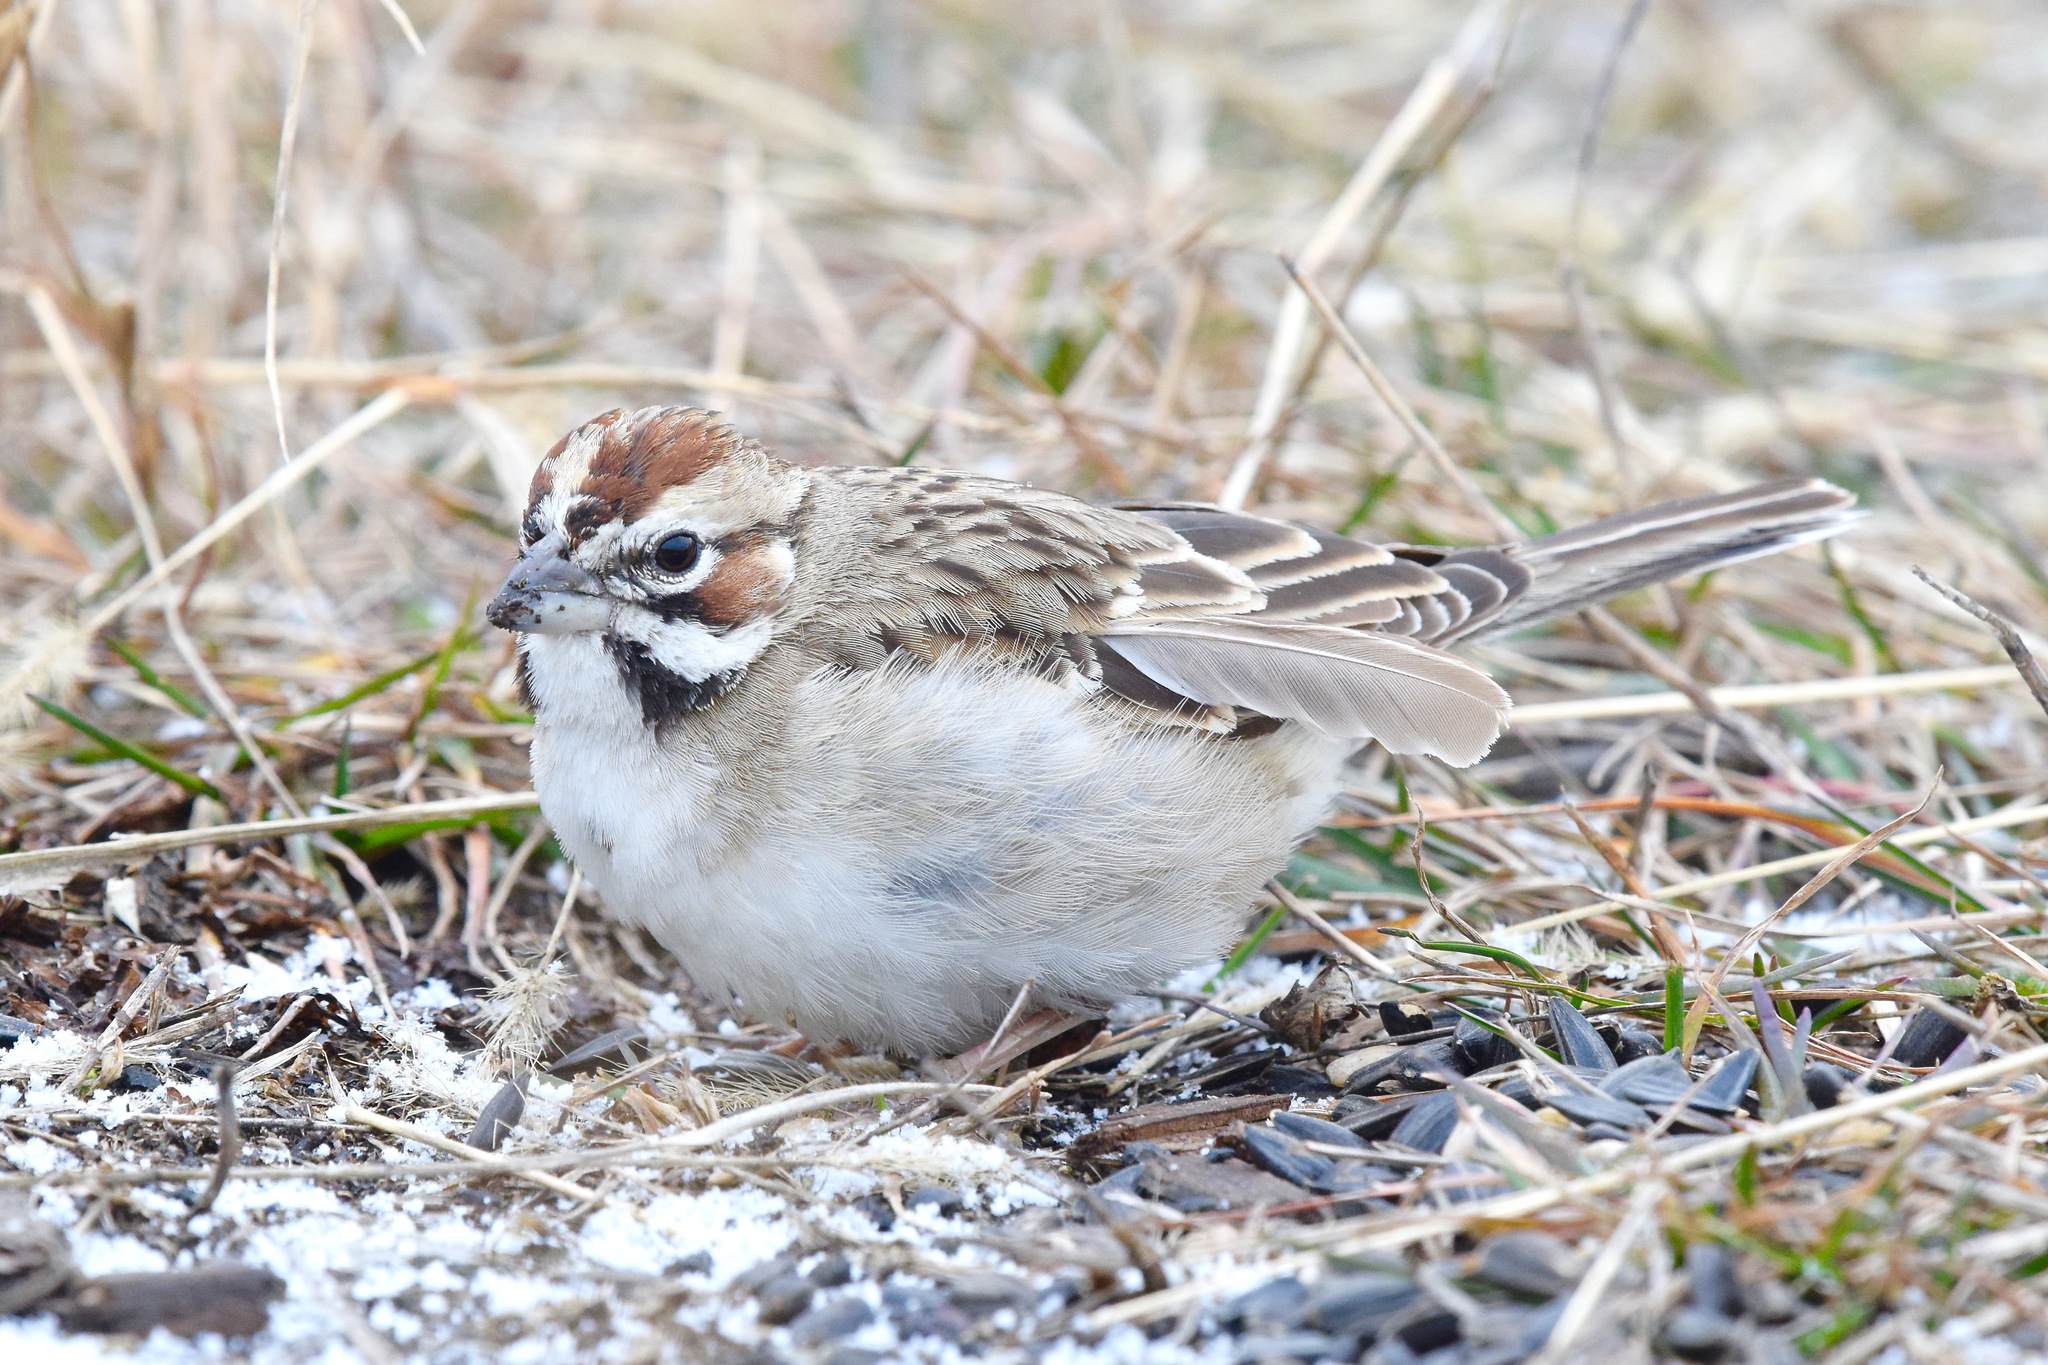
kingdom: Animalia
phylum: Chordata
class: Aves
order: Passeriformes
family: Passerellidae
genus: Chondestes
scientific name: Chondestes grammacus
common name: Lark sparrow
